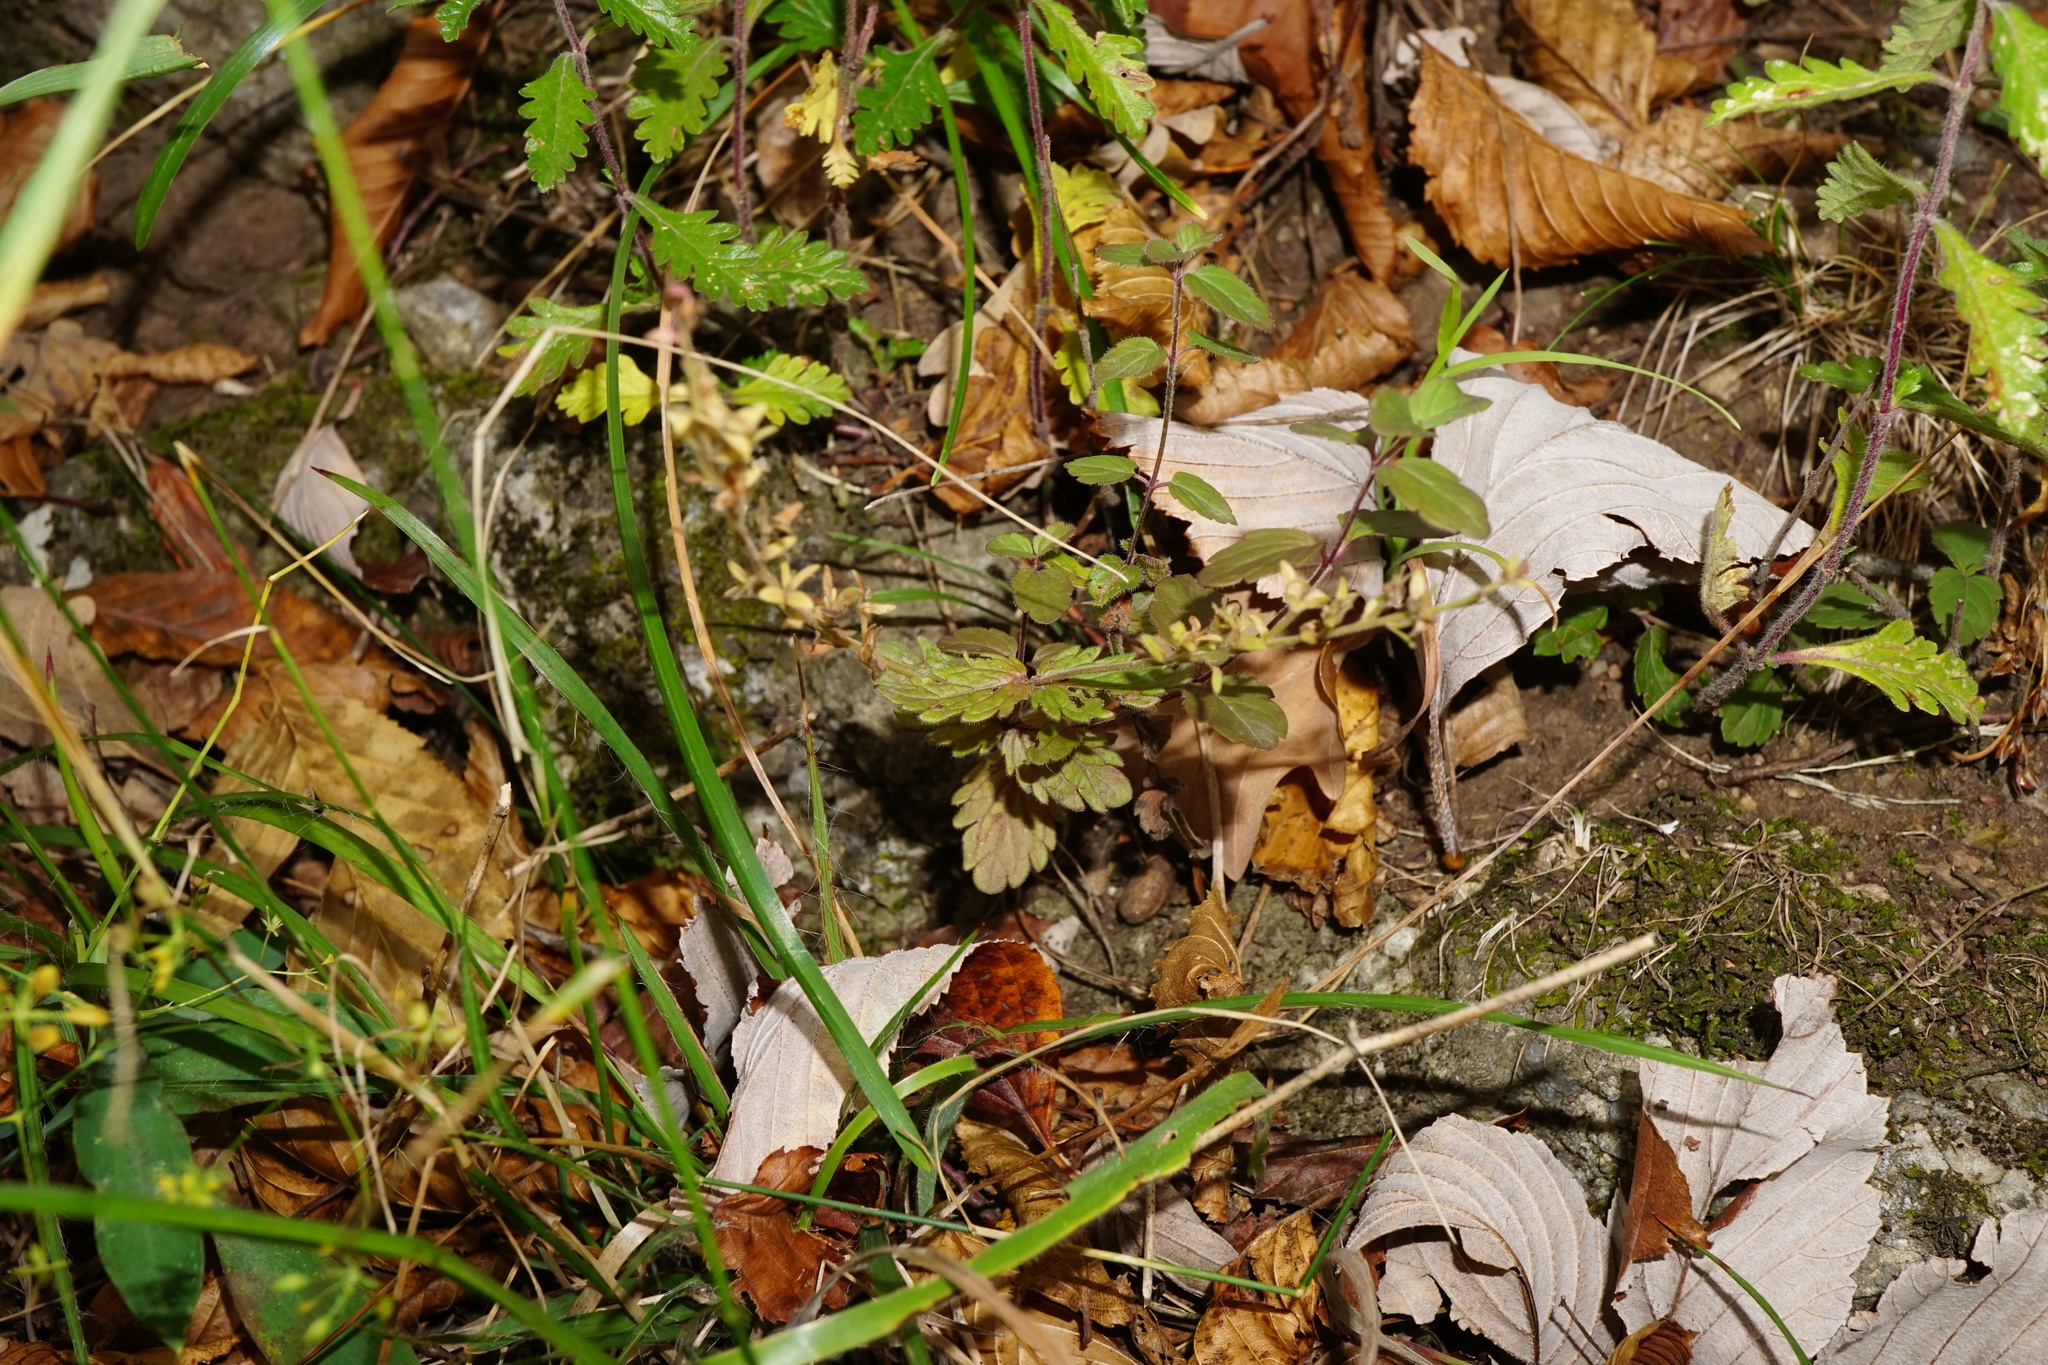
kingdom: Plantae
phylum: Tracheophyta
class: Magnoliopsida
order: Lamiales
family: Plantaginaceae
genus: Veronica
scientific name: Veronica chamaedrys
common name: Germander speedwell
